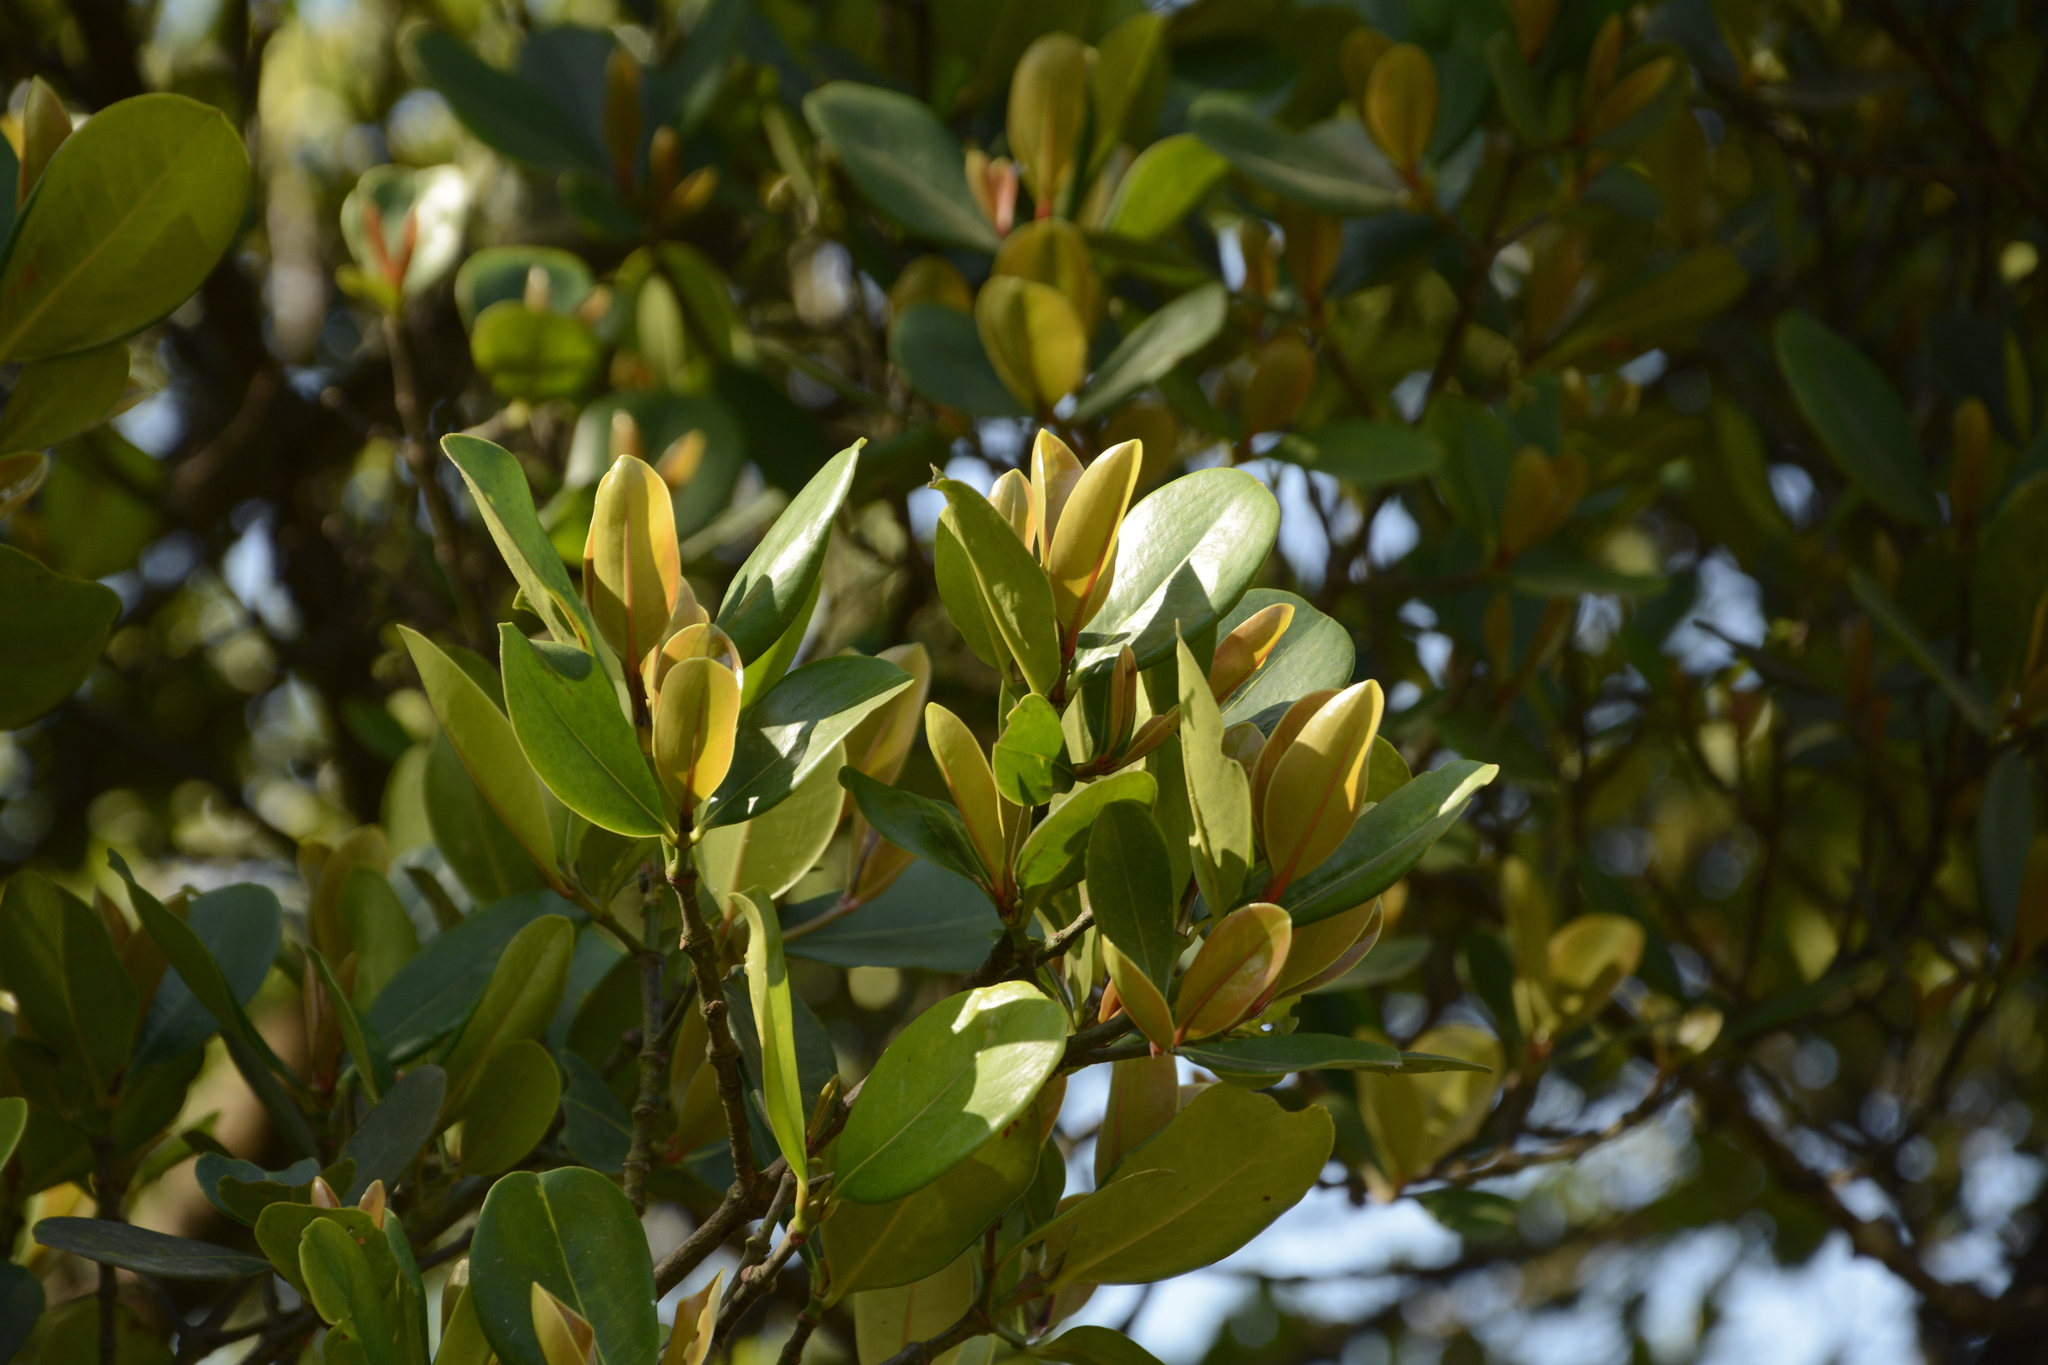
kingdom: Plantae
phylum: Tracheophyta
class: Magnoliopsida
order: Malpighiales
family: Rhizophoraceae
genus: Carallia
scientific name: Carallia brachiata
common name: Carallawood
